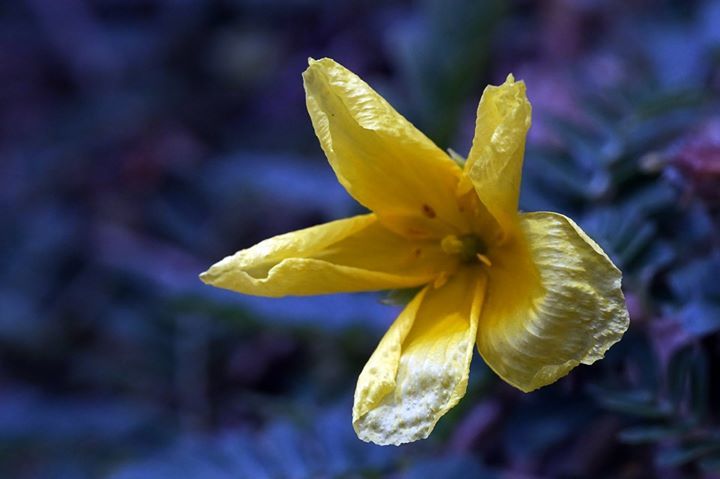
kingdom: Plantae
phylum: Tracheophyta
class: Magnoliopsida
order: Zygophyllales
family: Zygophyllaceae
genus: Tribulus
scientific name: Tribulus cistoides
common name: Jamaican feverplant
